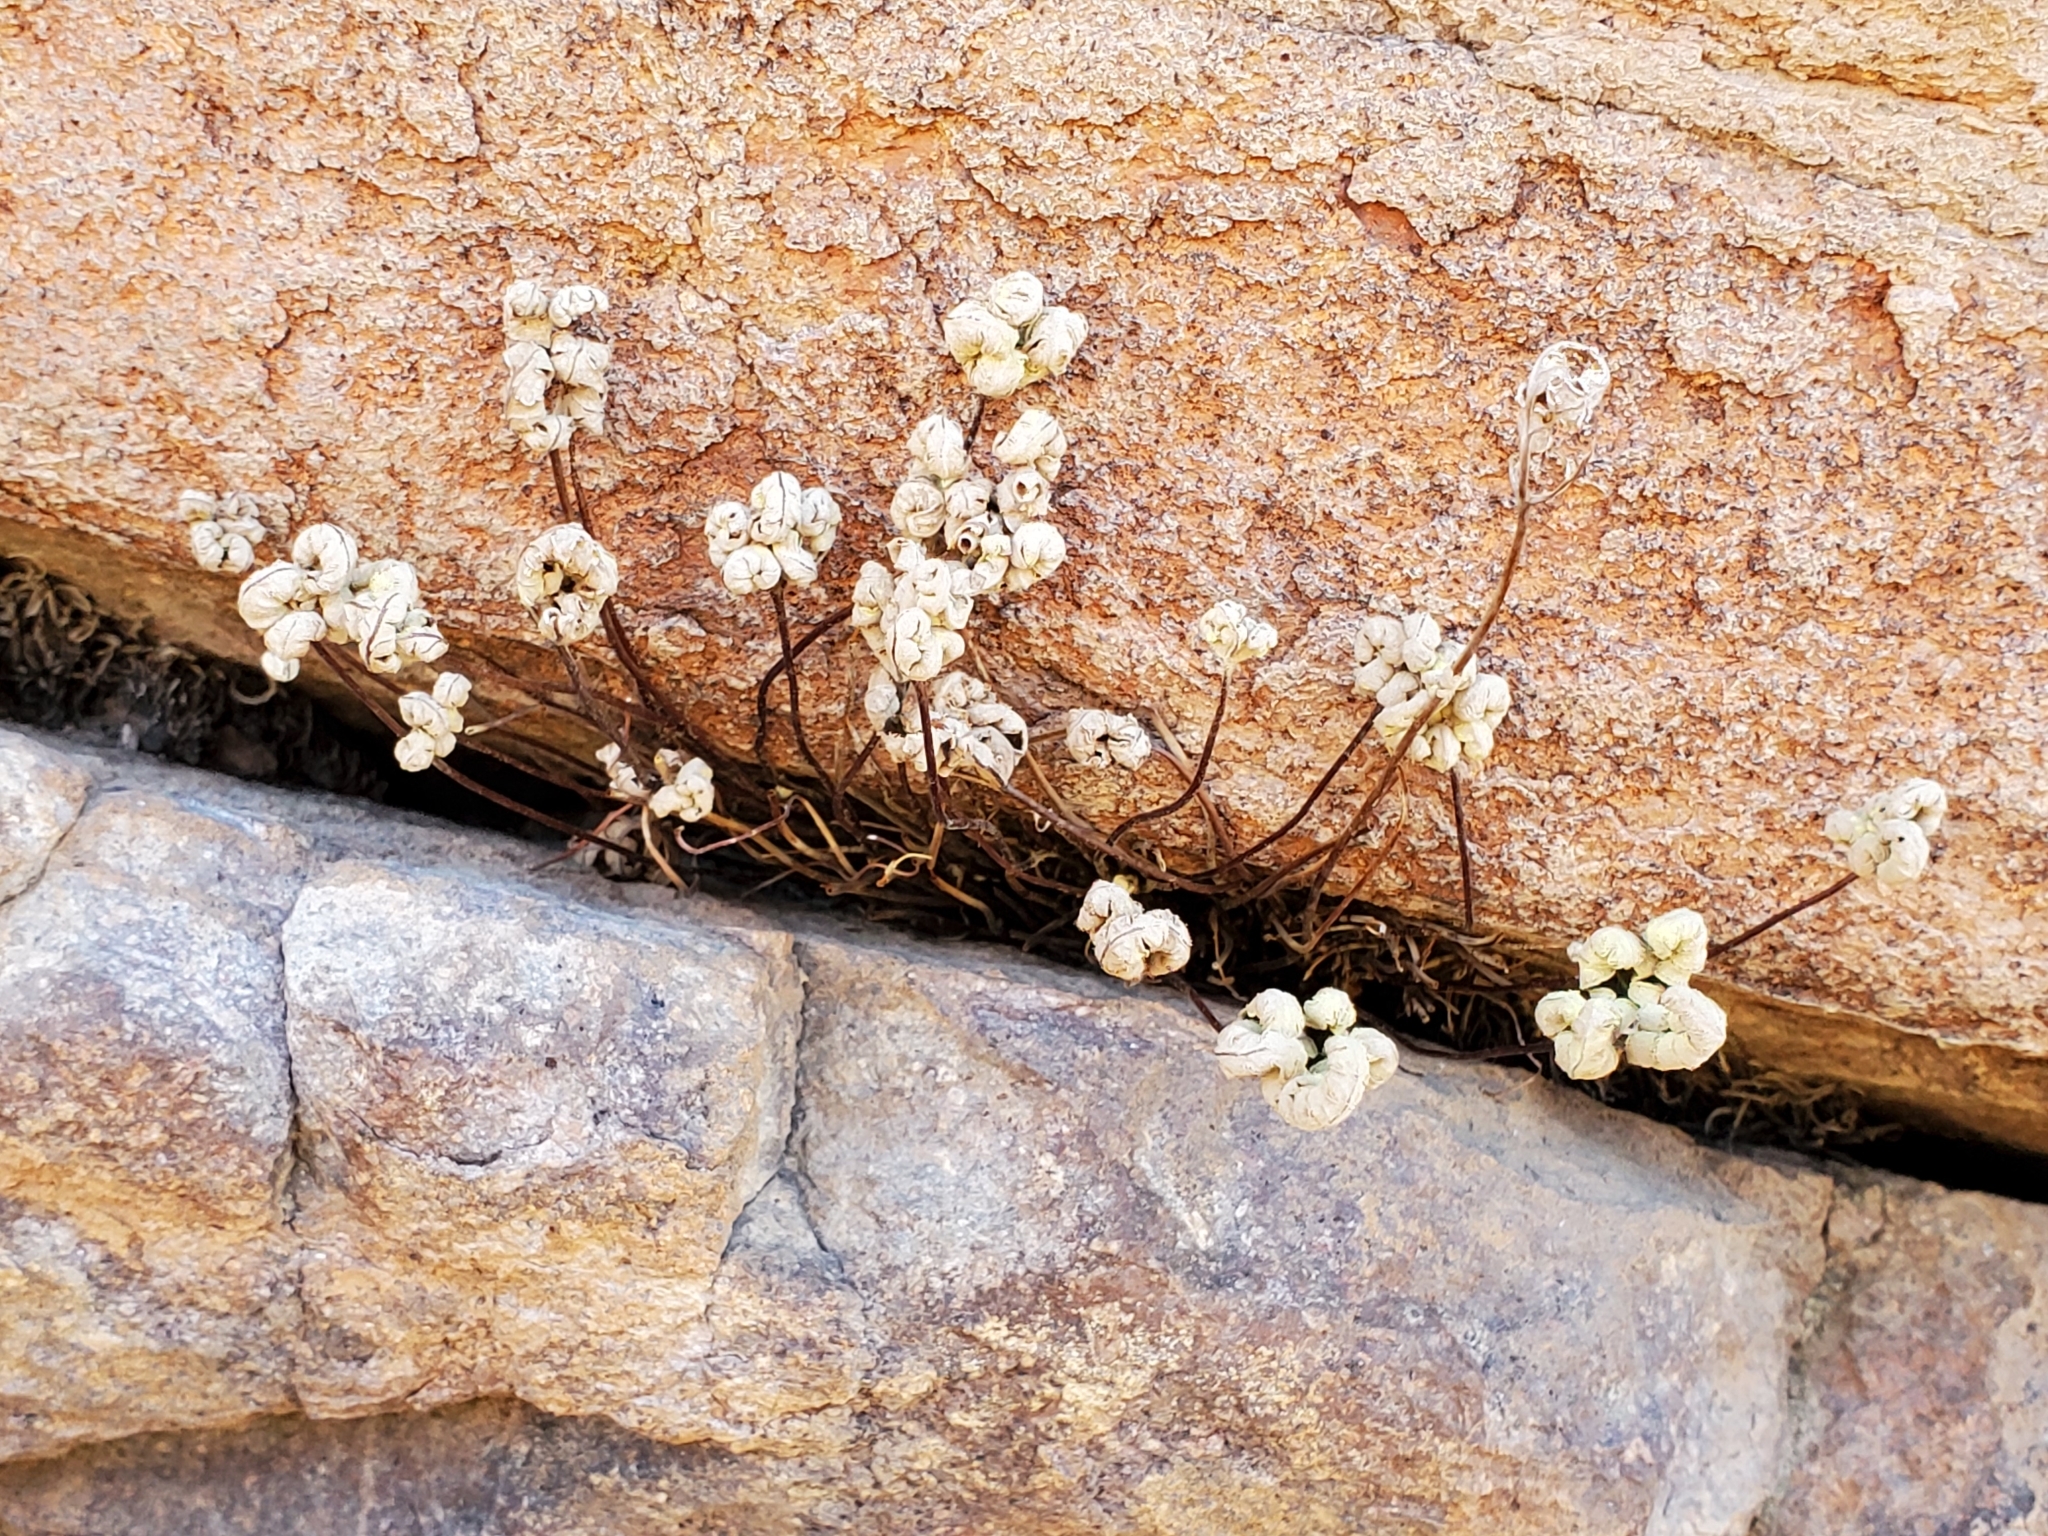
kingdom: Plantae
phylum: Tracheophyta
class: Polypodiopsida
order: Polypodiales
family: Pteridaceae
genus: Notholaena
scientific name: Notholaena standleyi
